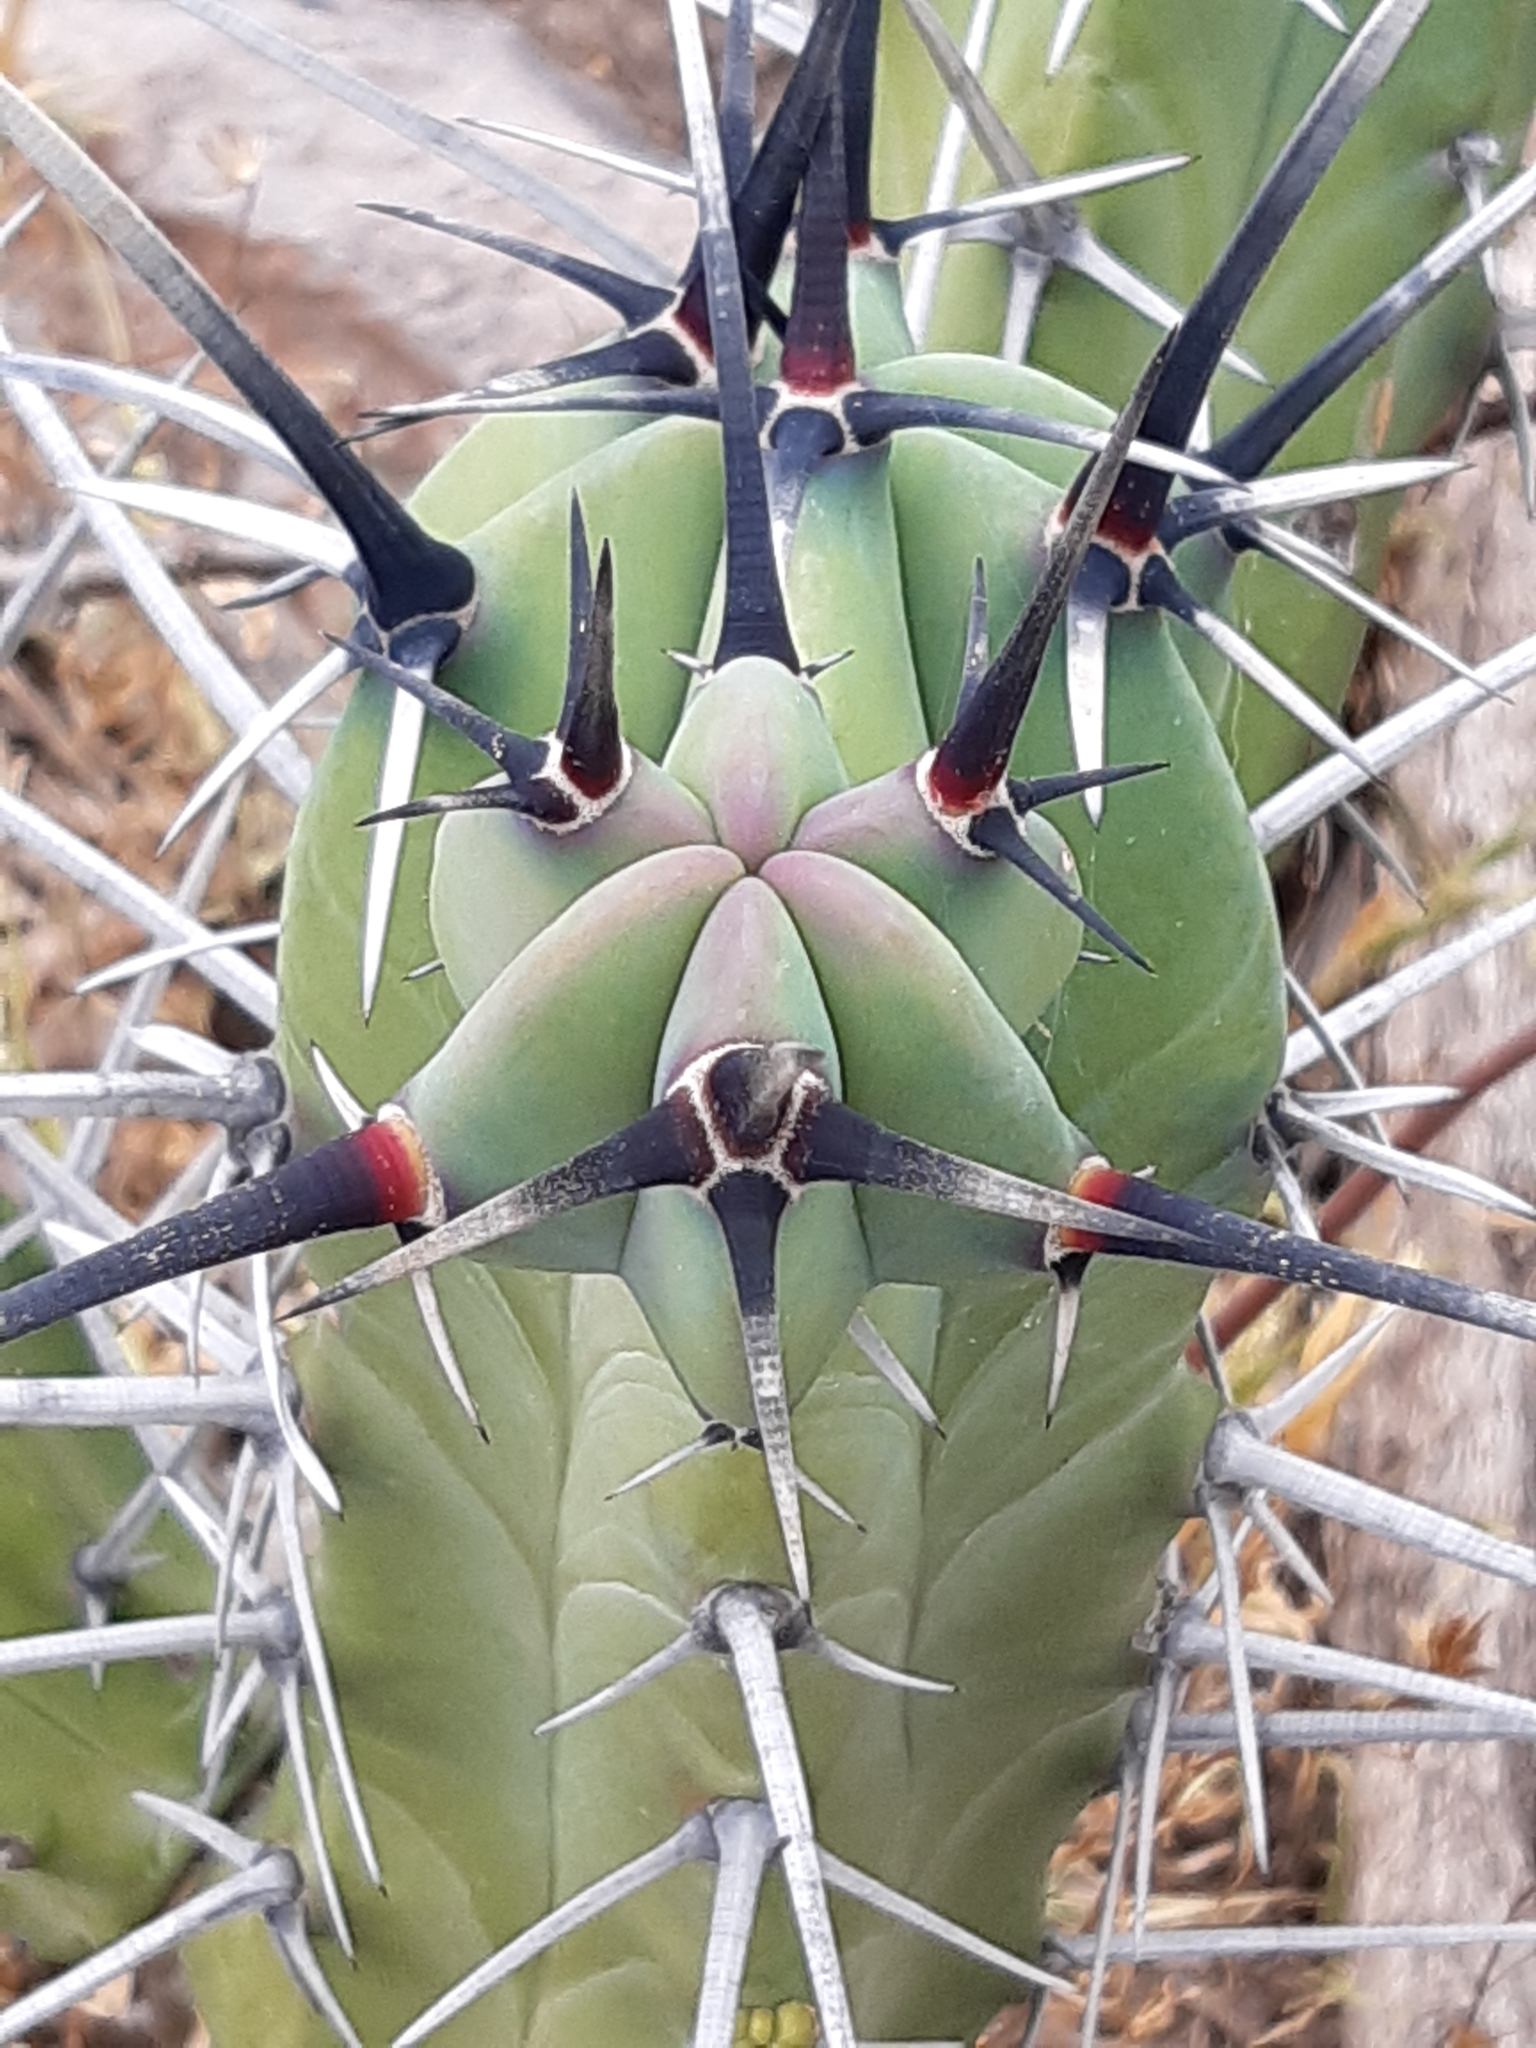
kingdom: Plantae
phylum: Tracheophyta
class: Magnoliopsida
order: Caryophyllales
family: Cactaceae
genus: Myrtillocactus
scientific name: Myrtillocactus geometrizans
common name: Bilberry cactus
